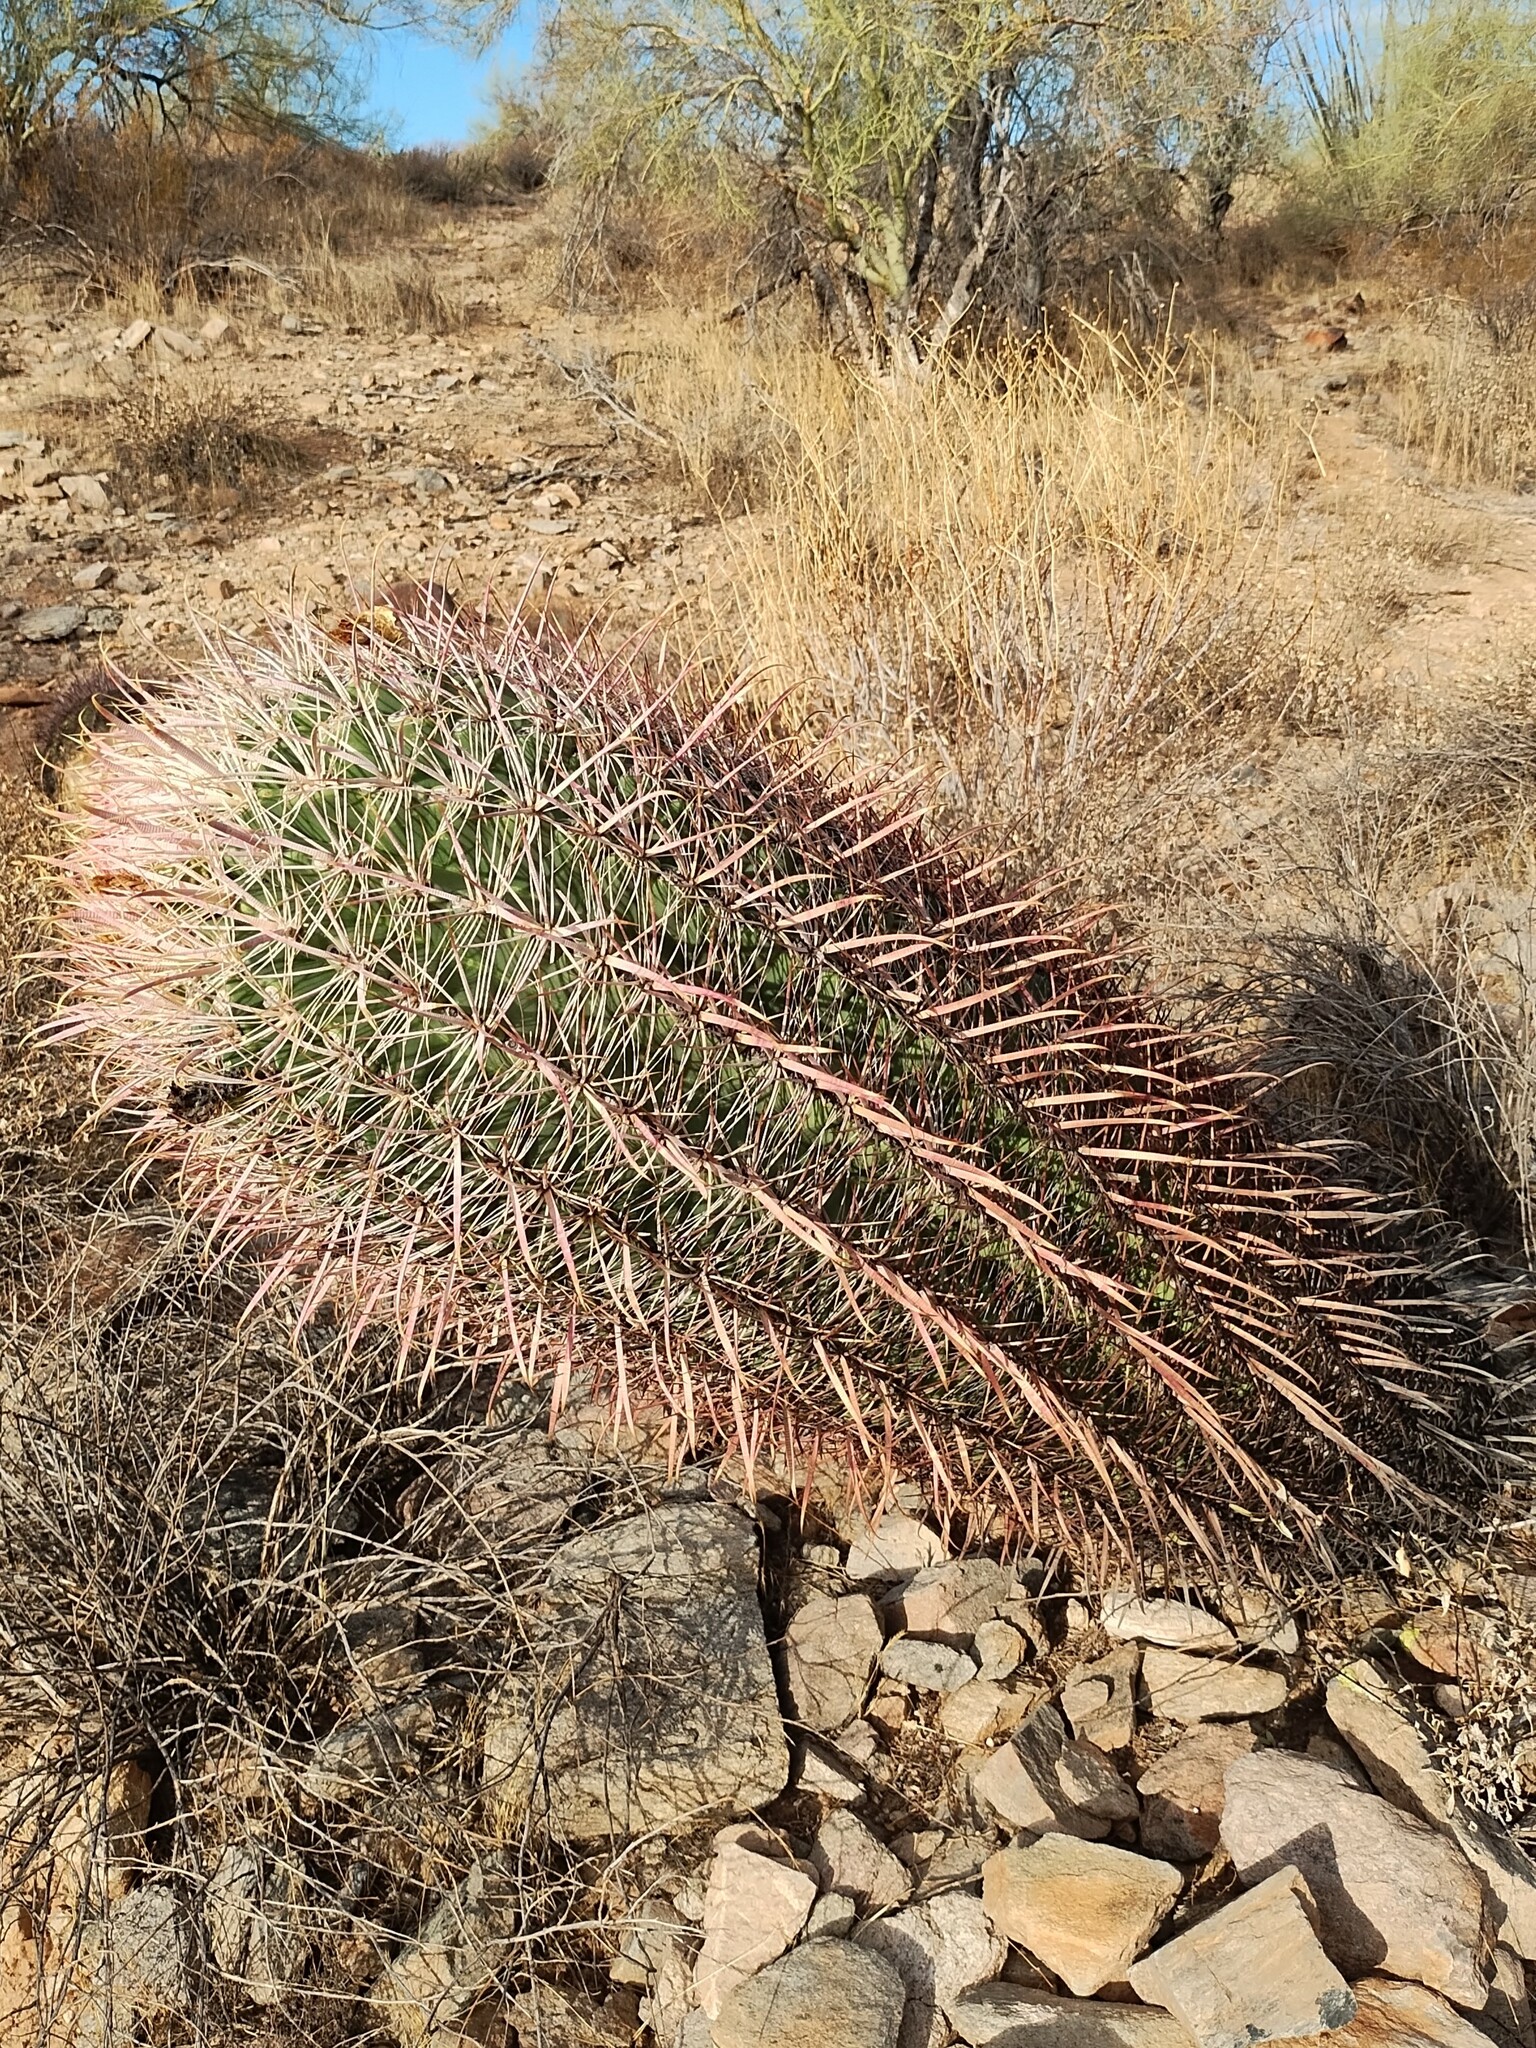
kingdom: Plantae
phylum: Tracheophyta
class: Magnoliopsida
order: Caryophyllales
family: Cactaceae
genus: Ferocactus
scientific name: Ferocactus cylindraceus
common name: California barrel cactus
